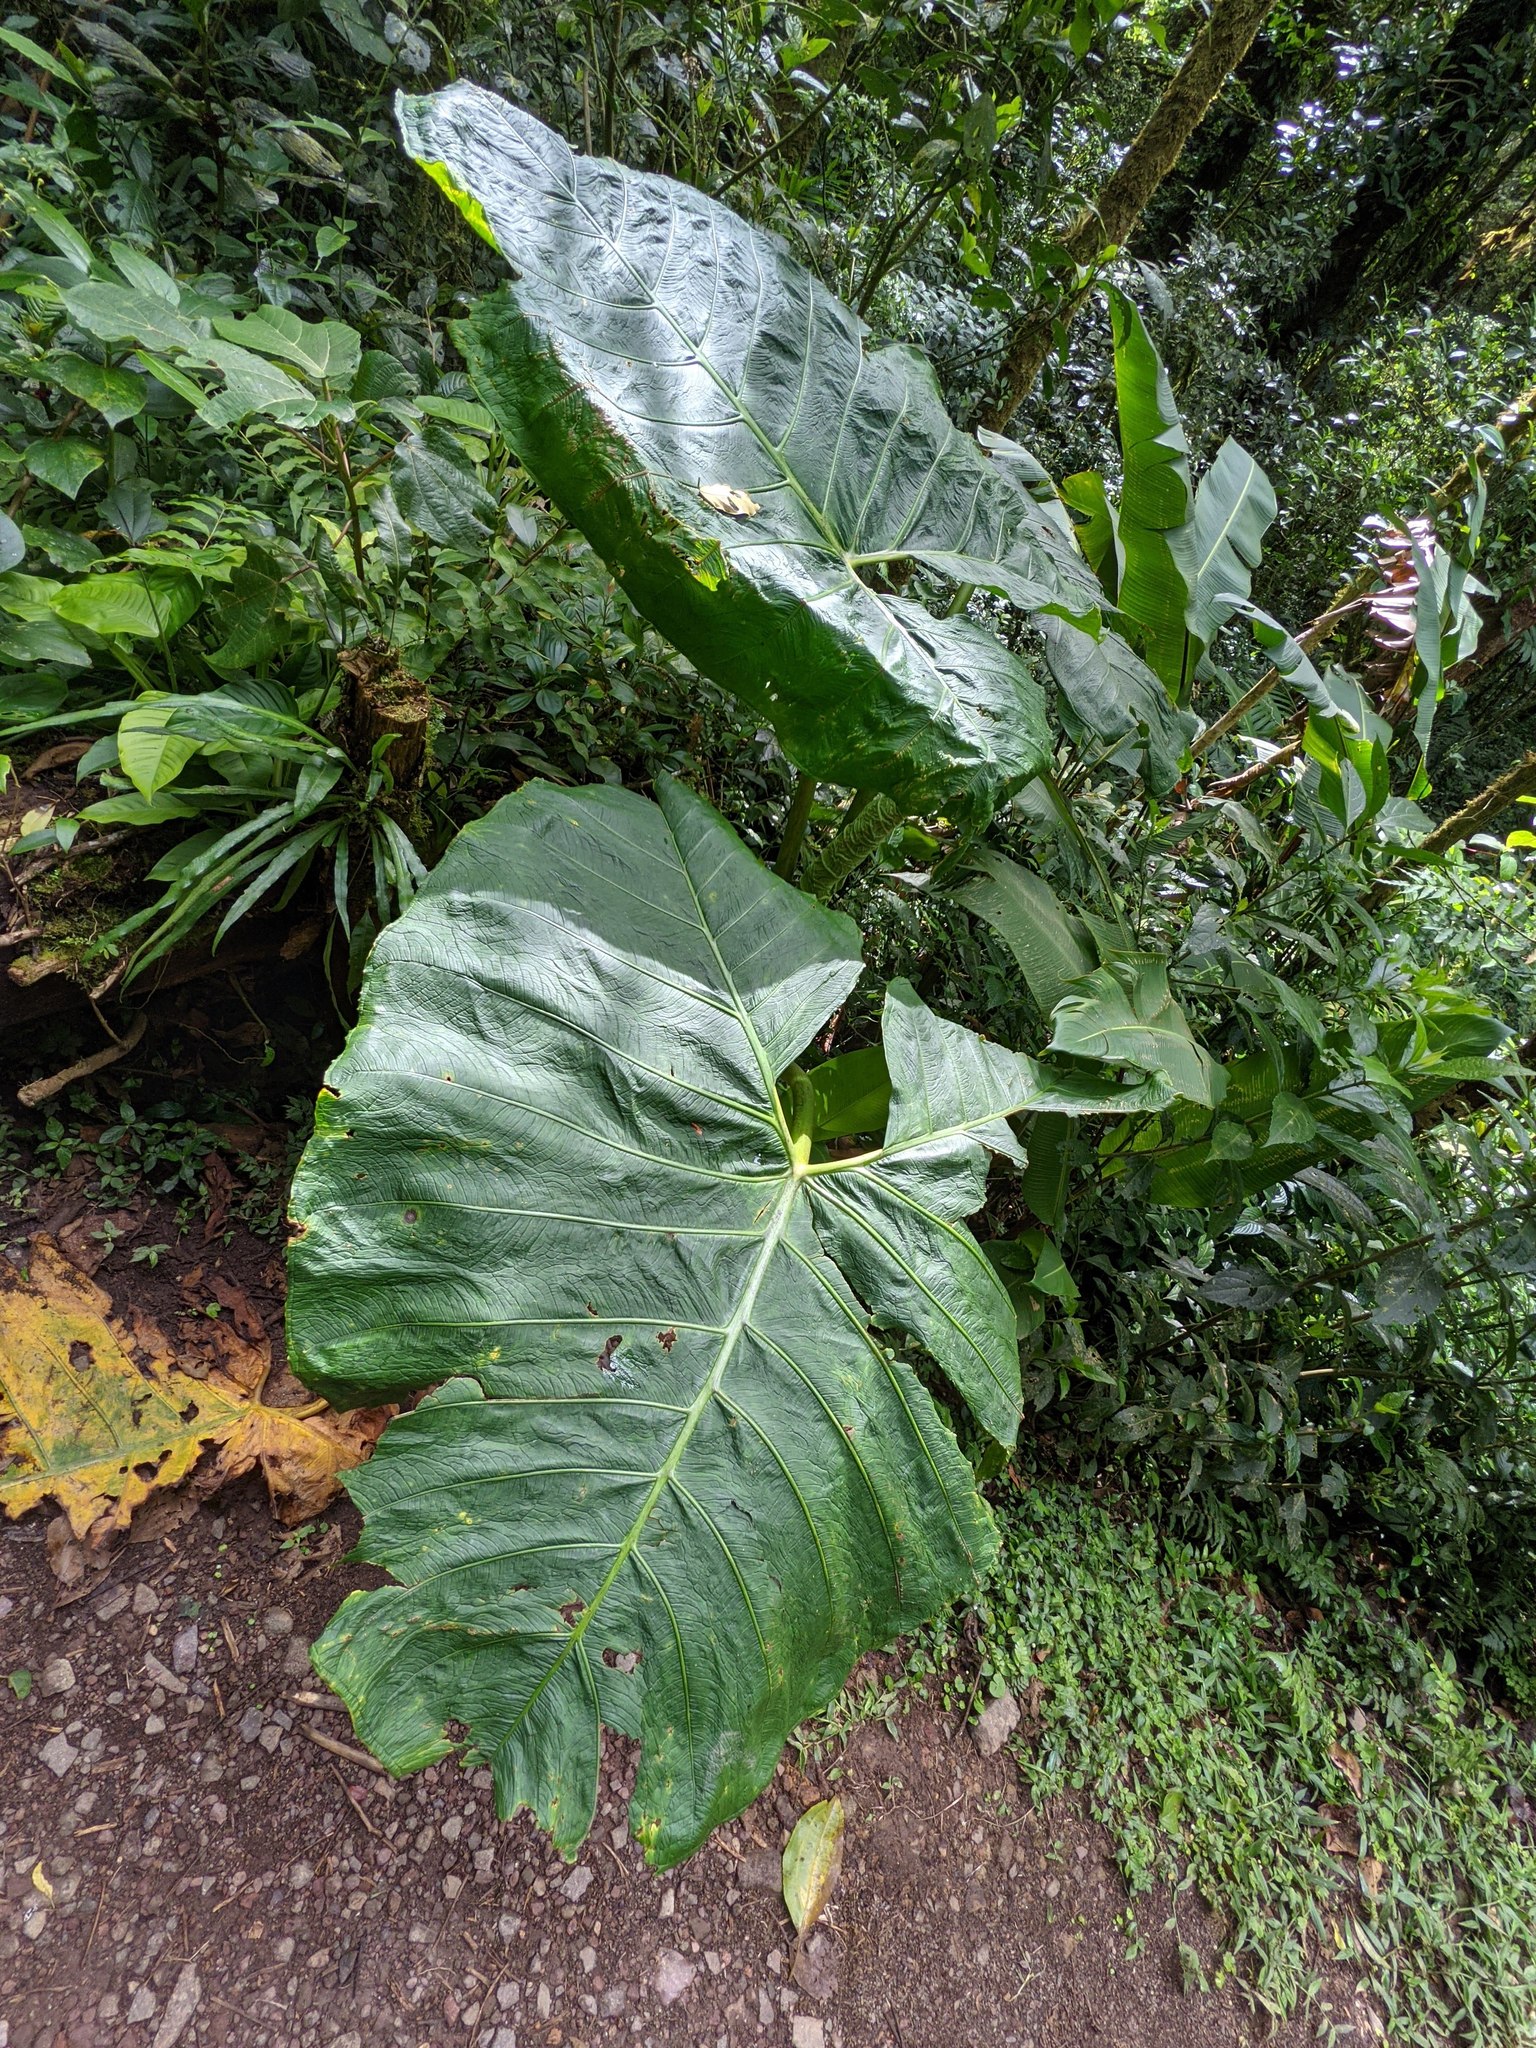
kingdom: Plantae
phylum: Tracheophyta
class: Liliopsida
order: Alismatales
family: Araceae
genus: Xanthosoma
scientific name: Xanthosoma undipes
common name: Tall elephant's ear
